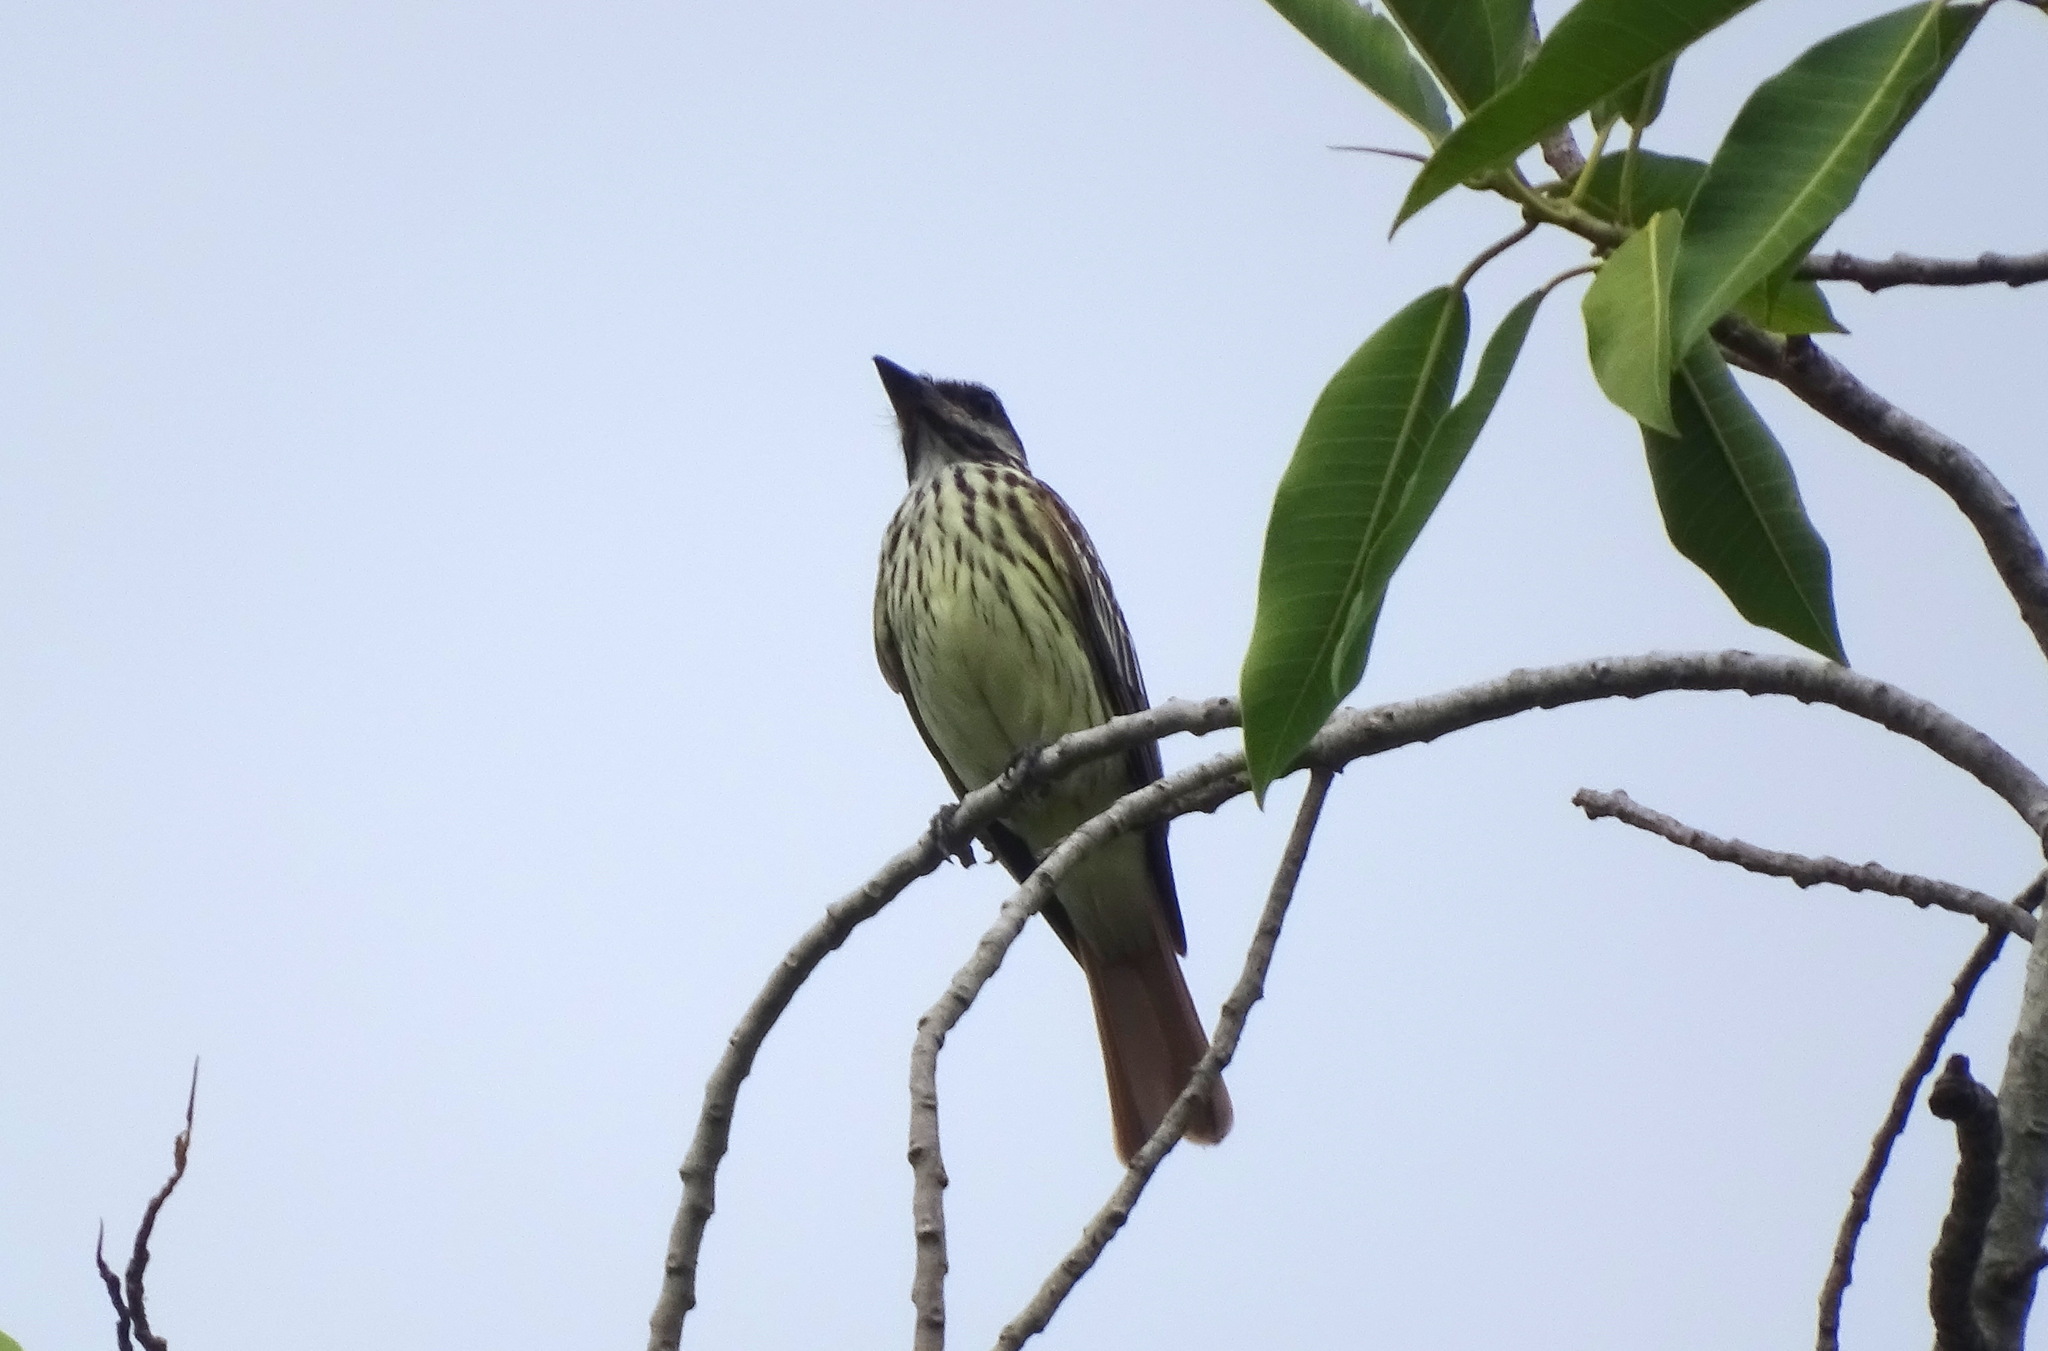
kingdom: Animalia
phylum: Chordata
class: Aves
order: Passeriformes
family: Tyrannidae
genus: Myiodynastes
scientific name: Myiodynastes luteiventris
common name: Sulphur-bellied flycatcher
